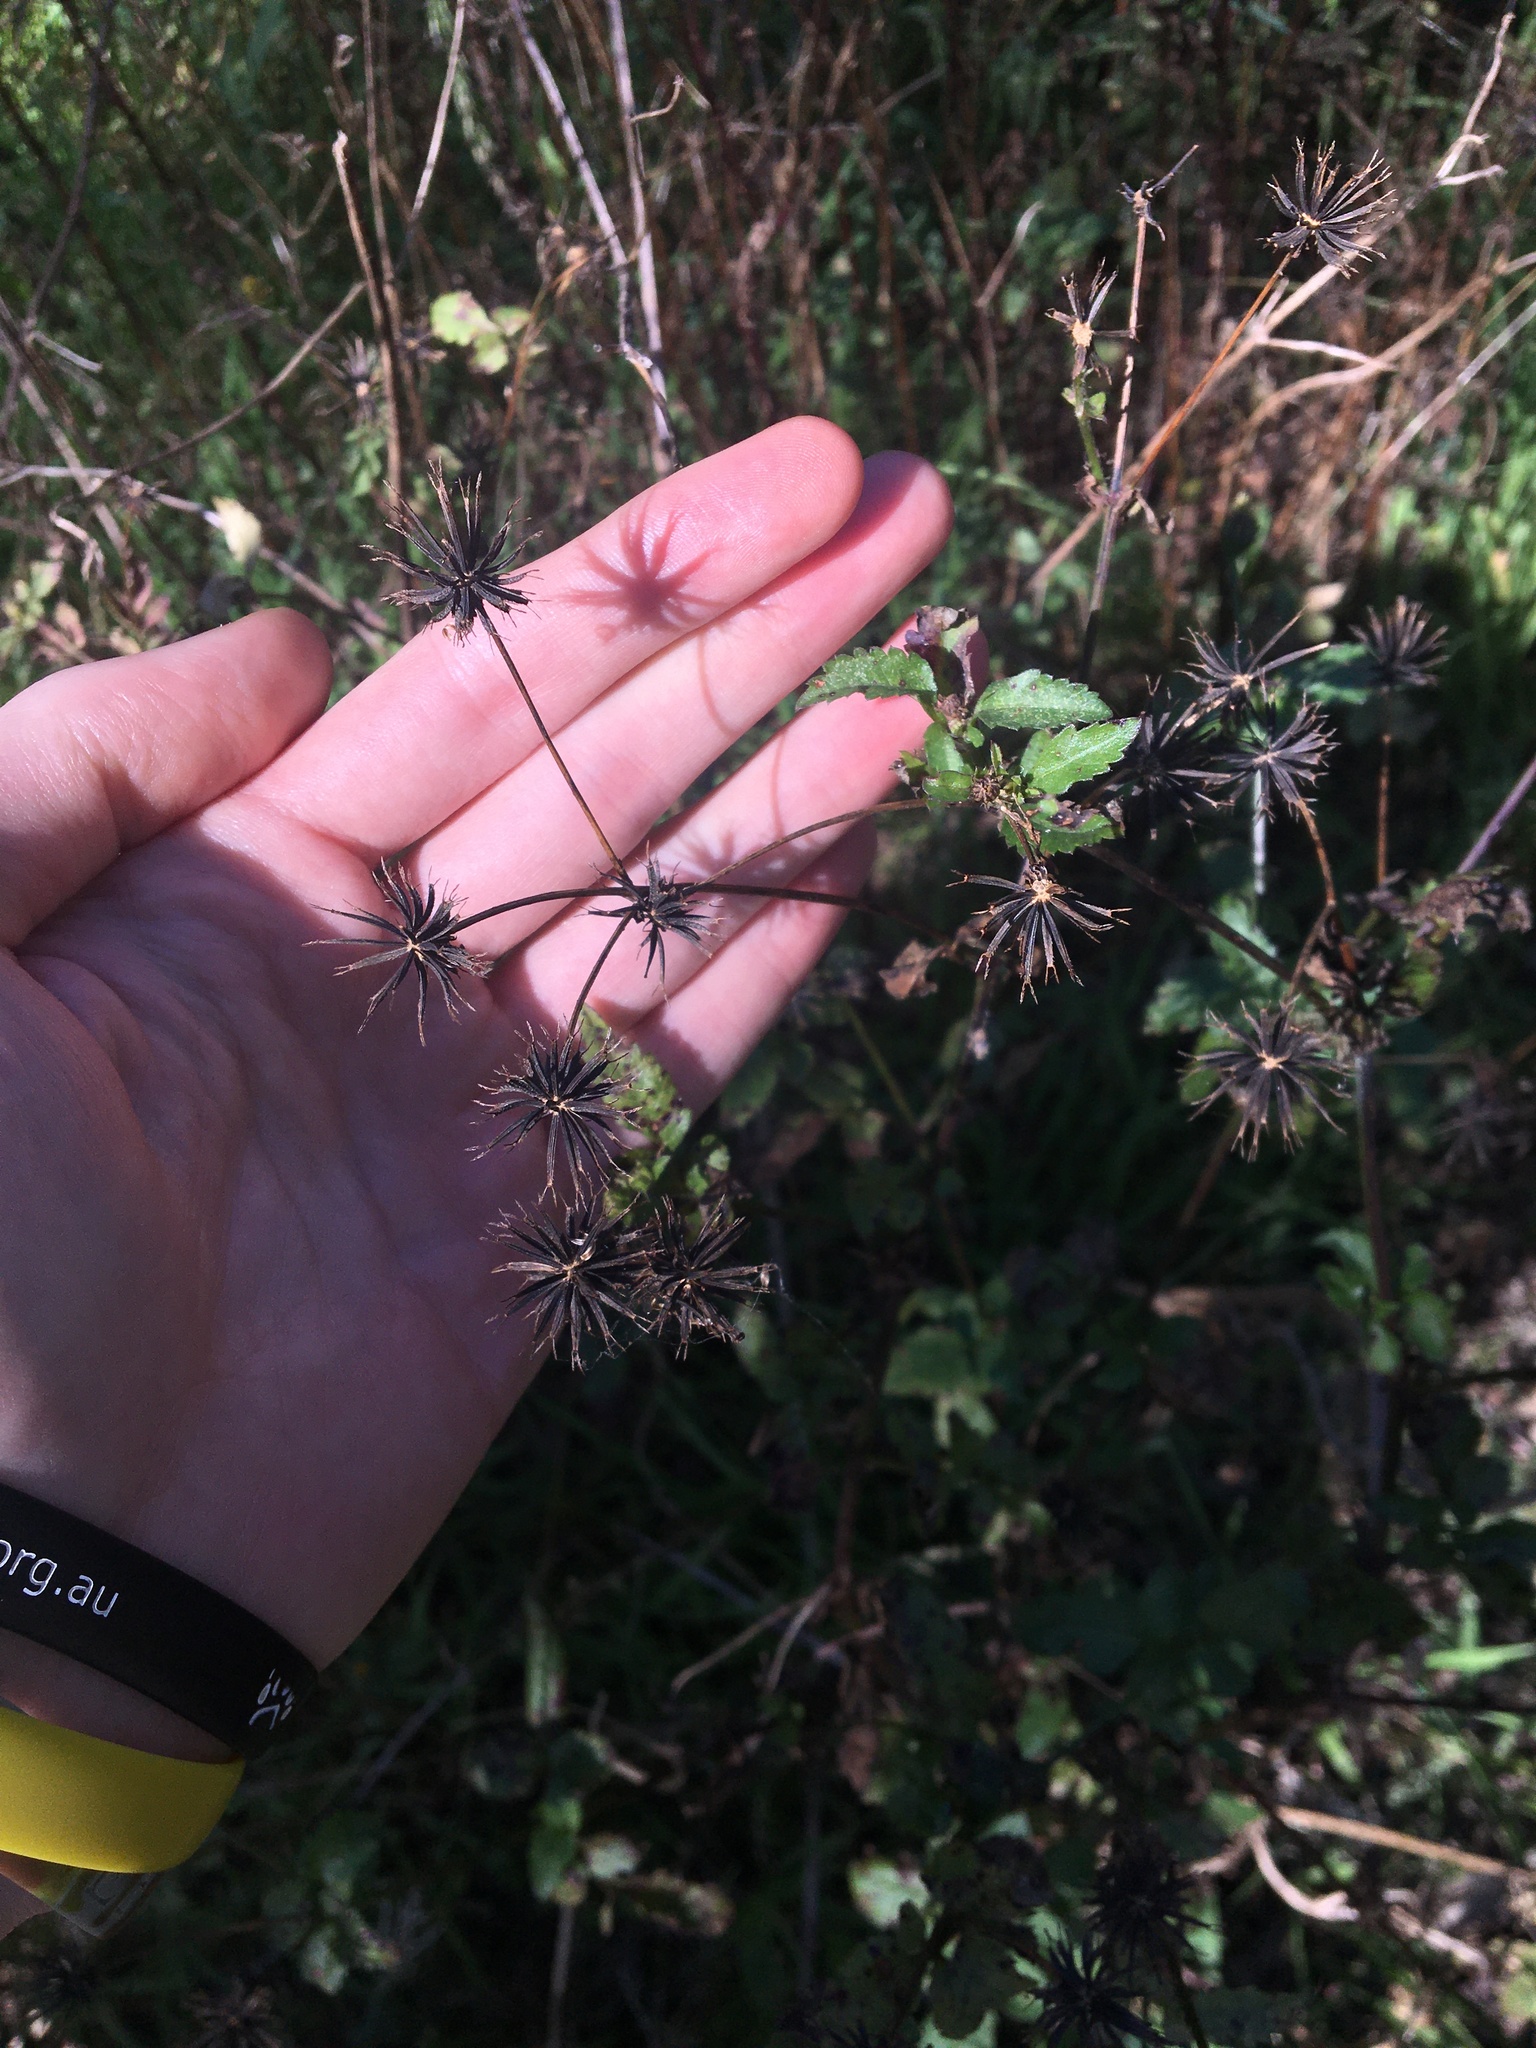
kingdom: Plantae
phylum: Tracheophyta
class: Magnoliopsida
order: Asterales
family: Asteraceae
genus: Bidens
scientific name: Bidens pilosa
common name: Black-jack
